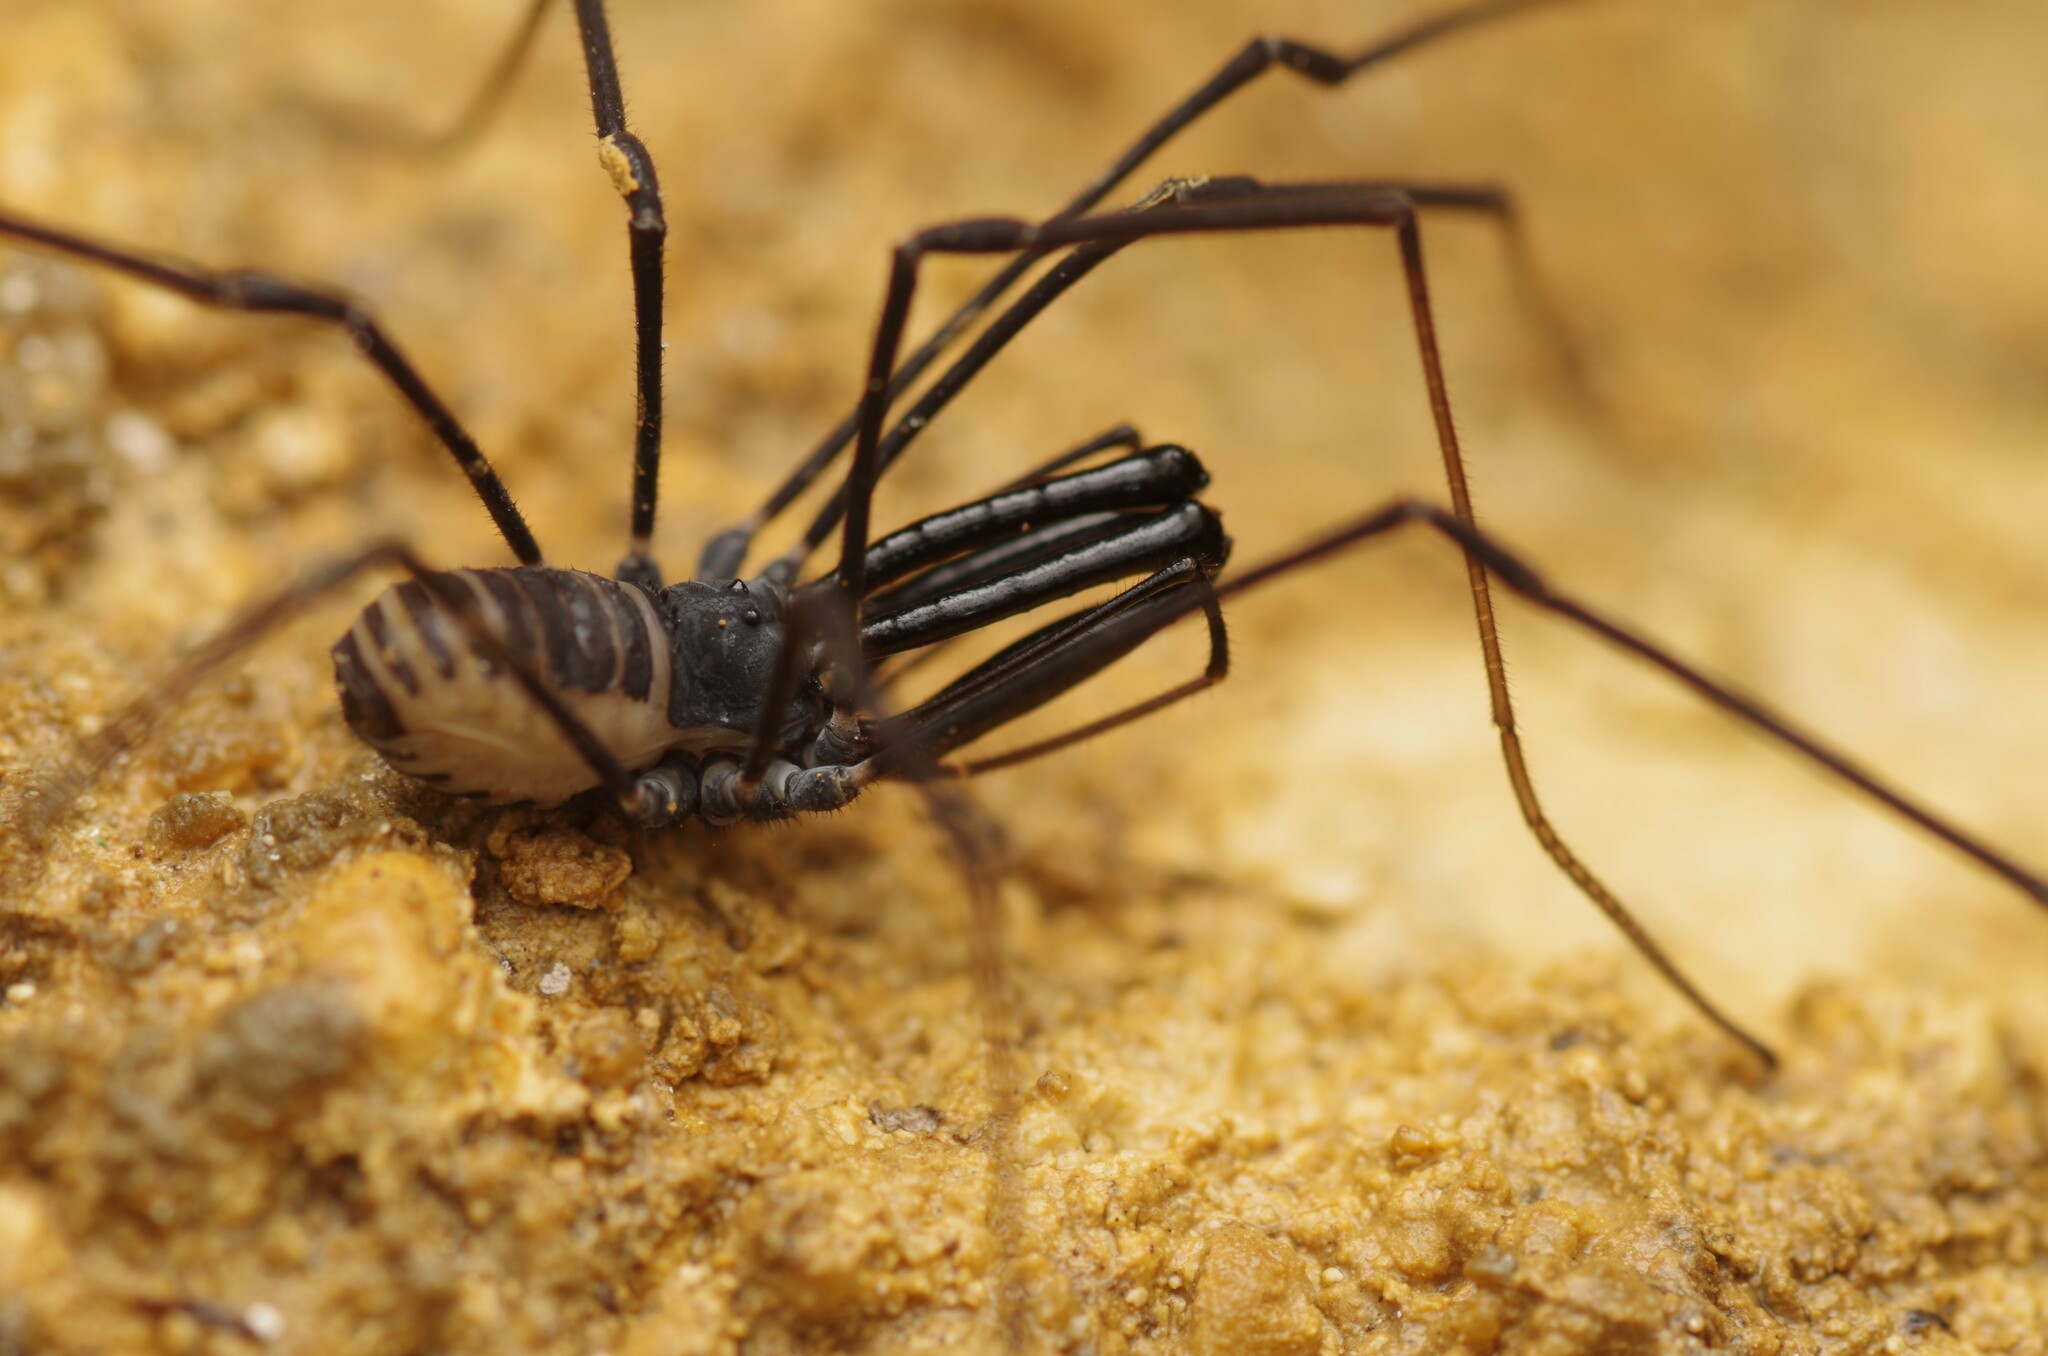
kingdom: Animalia
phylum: Arthropoda
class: Arachnida
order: Opiliones
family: Ischyropsalididae
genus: Ischyropsalis
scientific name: Ischyropsalis pyrenaea
